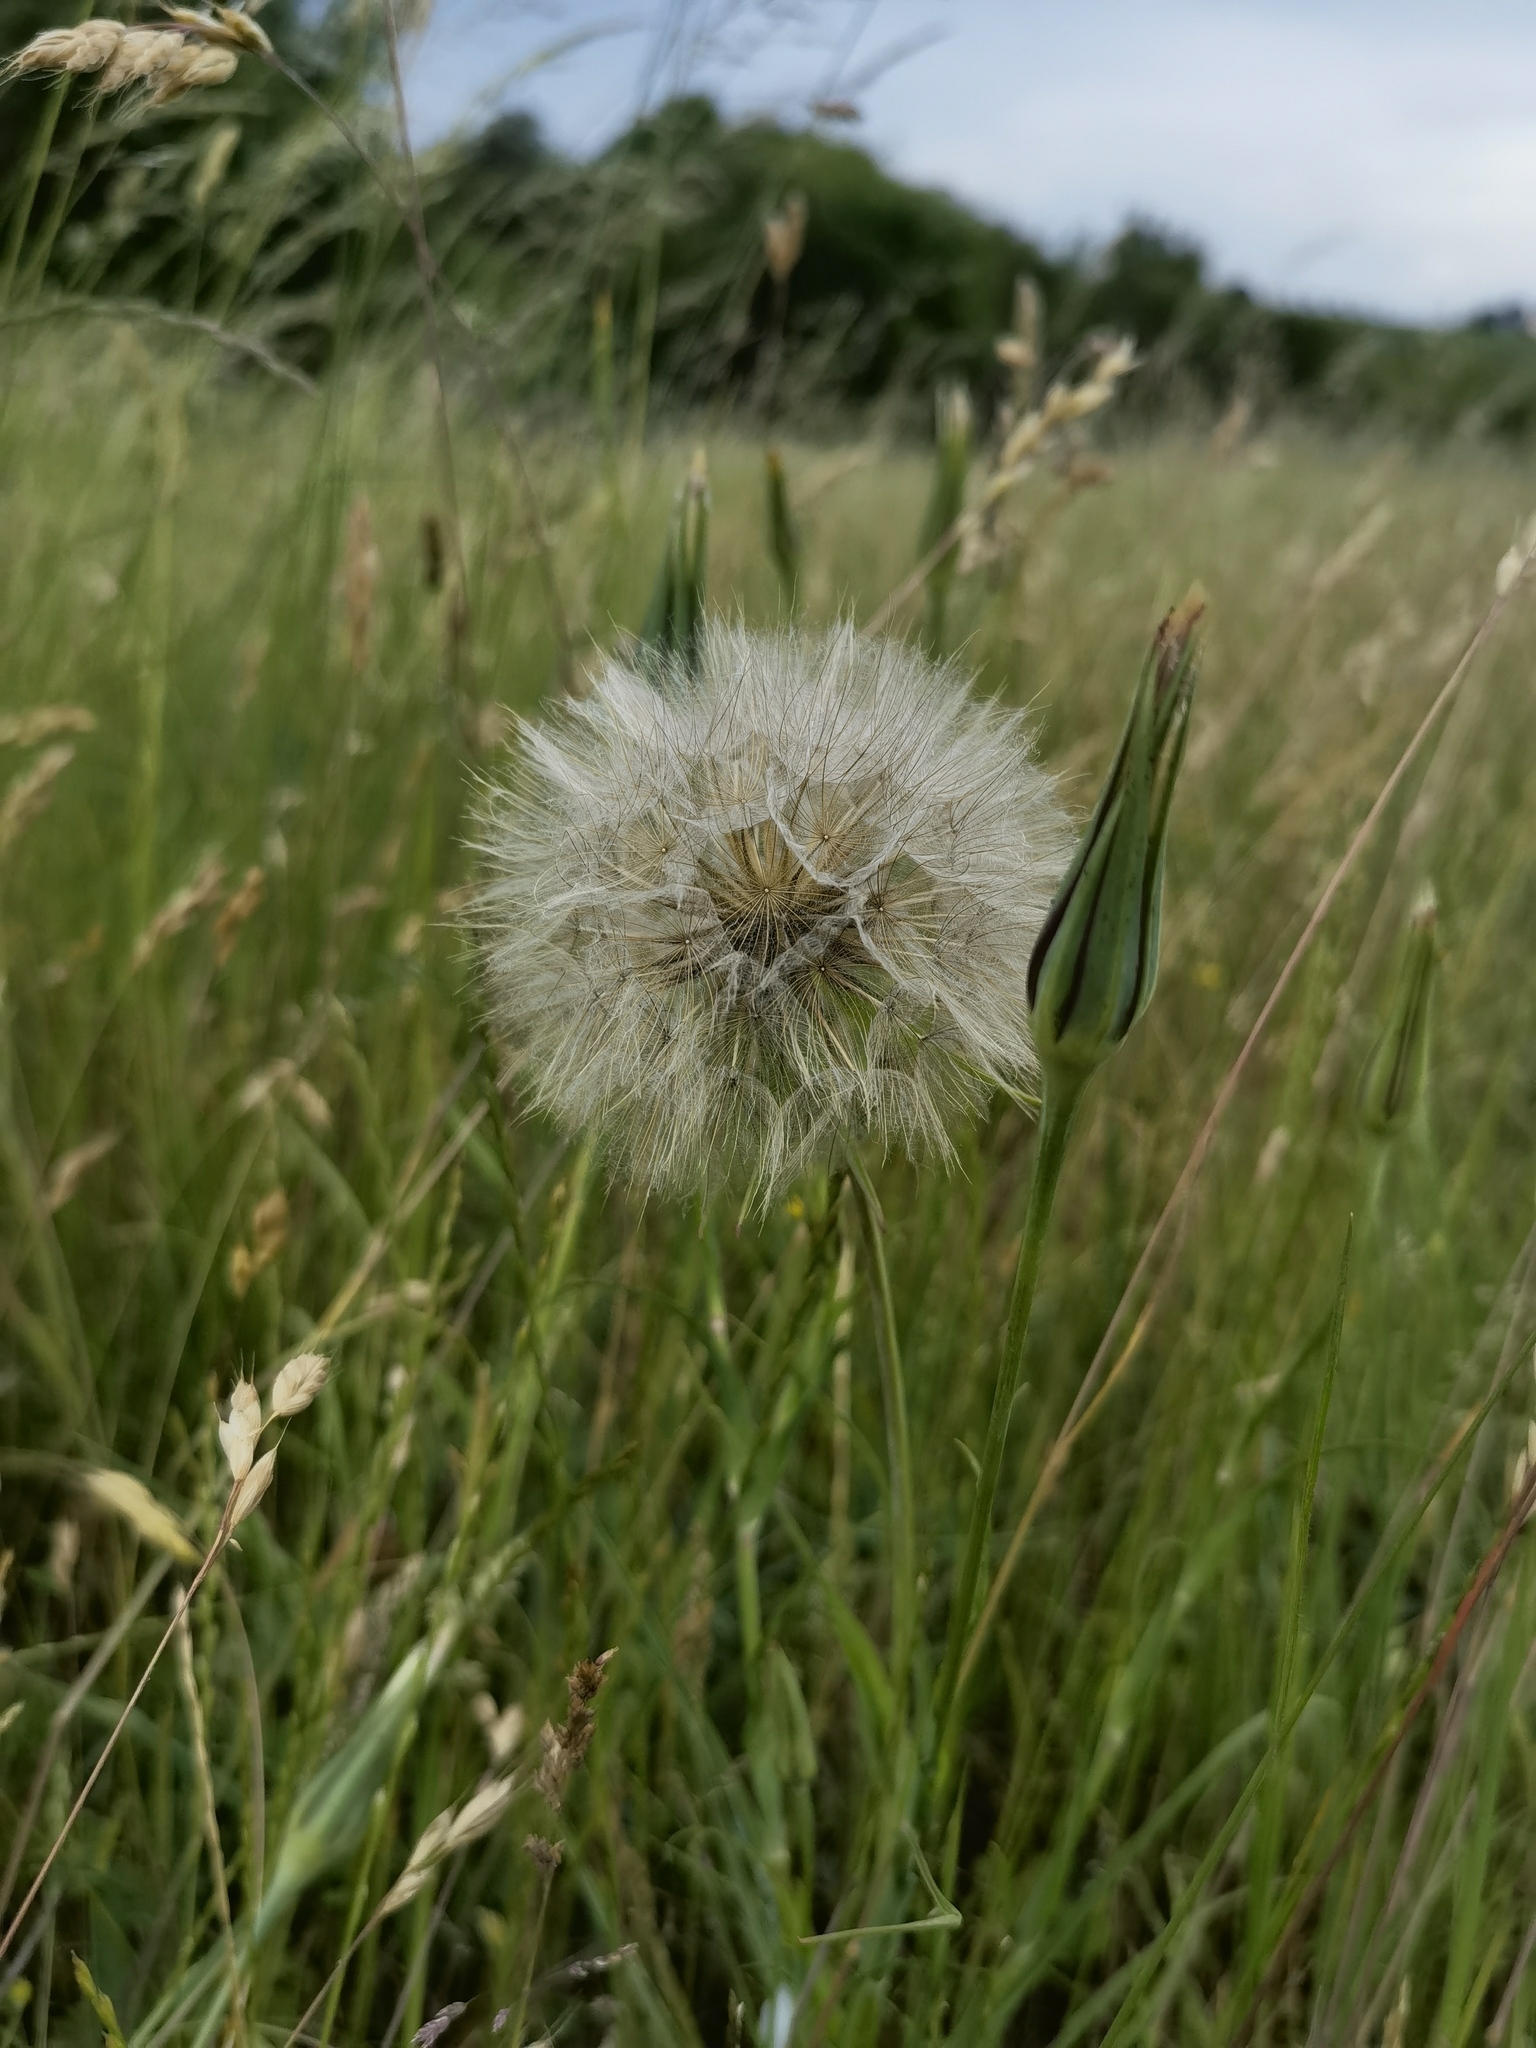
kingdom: Plantae
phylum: Tracheophyta
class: Magnoliopsida
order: Asterales
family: Asteraceae
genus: Tragopogon
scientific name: Tragopogon pratensis
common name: Goat's-beard
